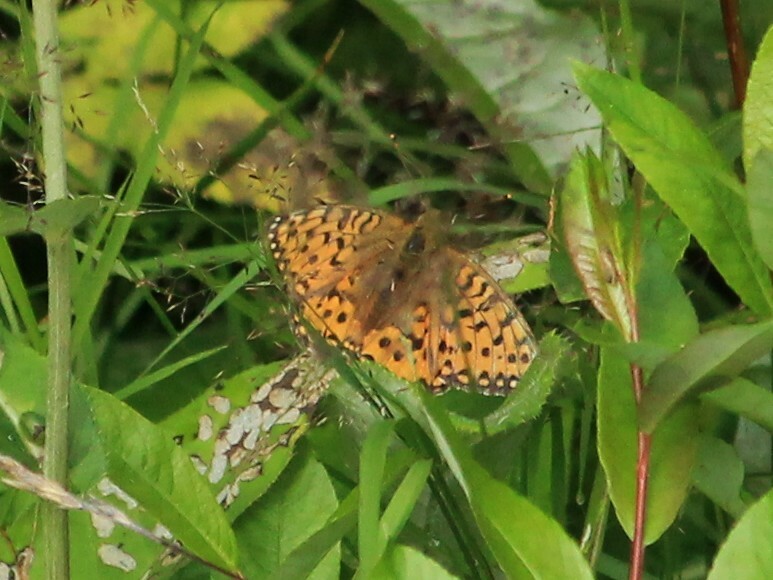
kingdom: Animalia
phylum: Arthropoda
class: Insecta
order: Lepidoptera
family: Nymphalidae
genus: Speyeria
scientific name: Speyeria aglaja
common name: Dark green fritillary
